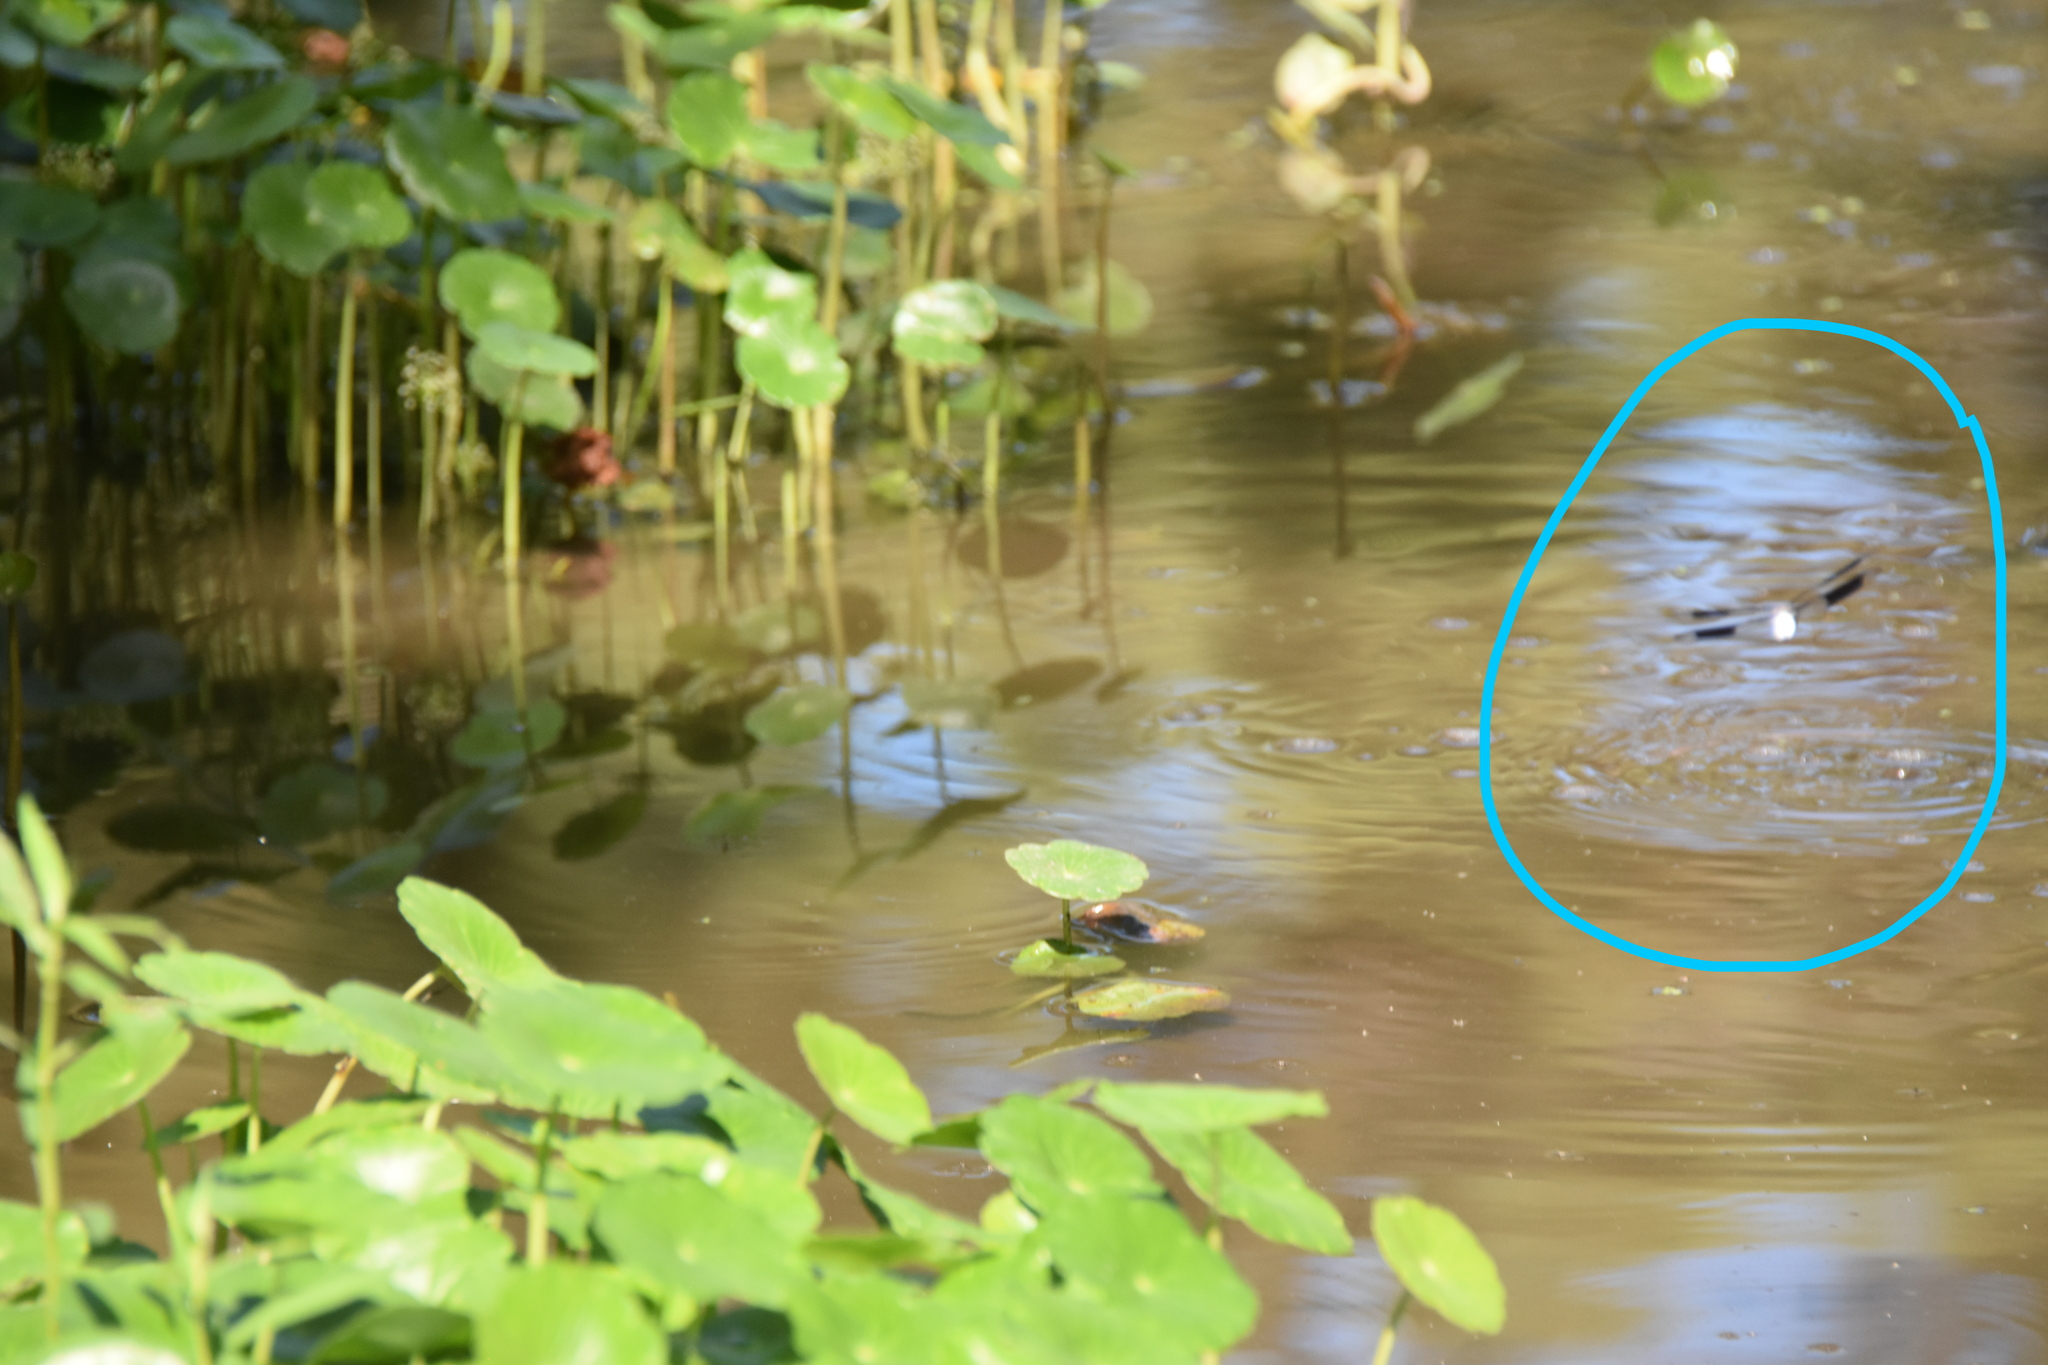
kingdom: Animalia
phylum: Arthropoda
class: Insecta
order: Odonata
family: Libellulidae
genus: Plathemis
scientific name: Plathemis lydia
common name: Common whitetail
